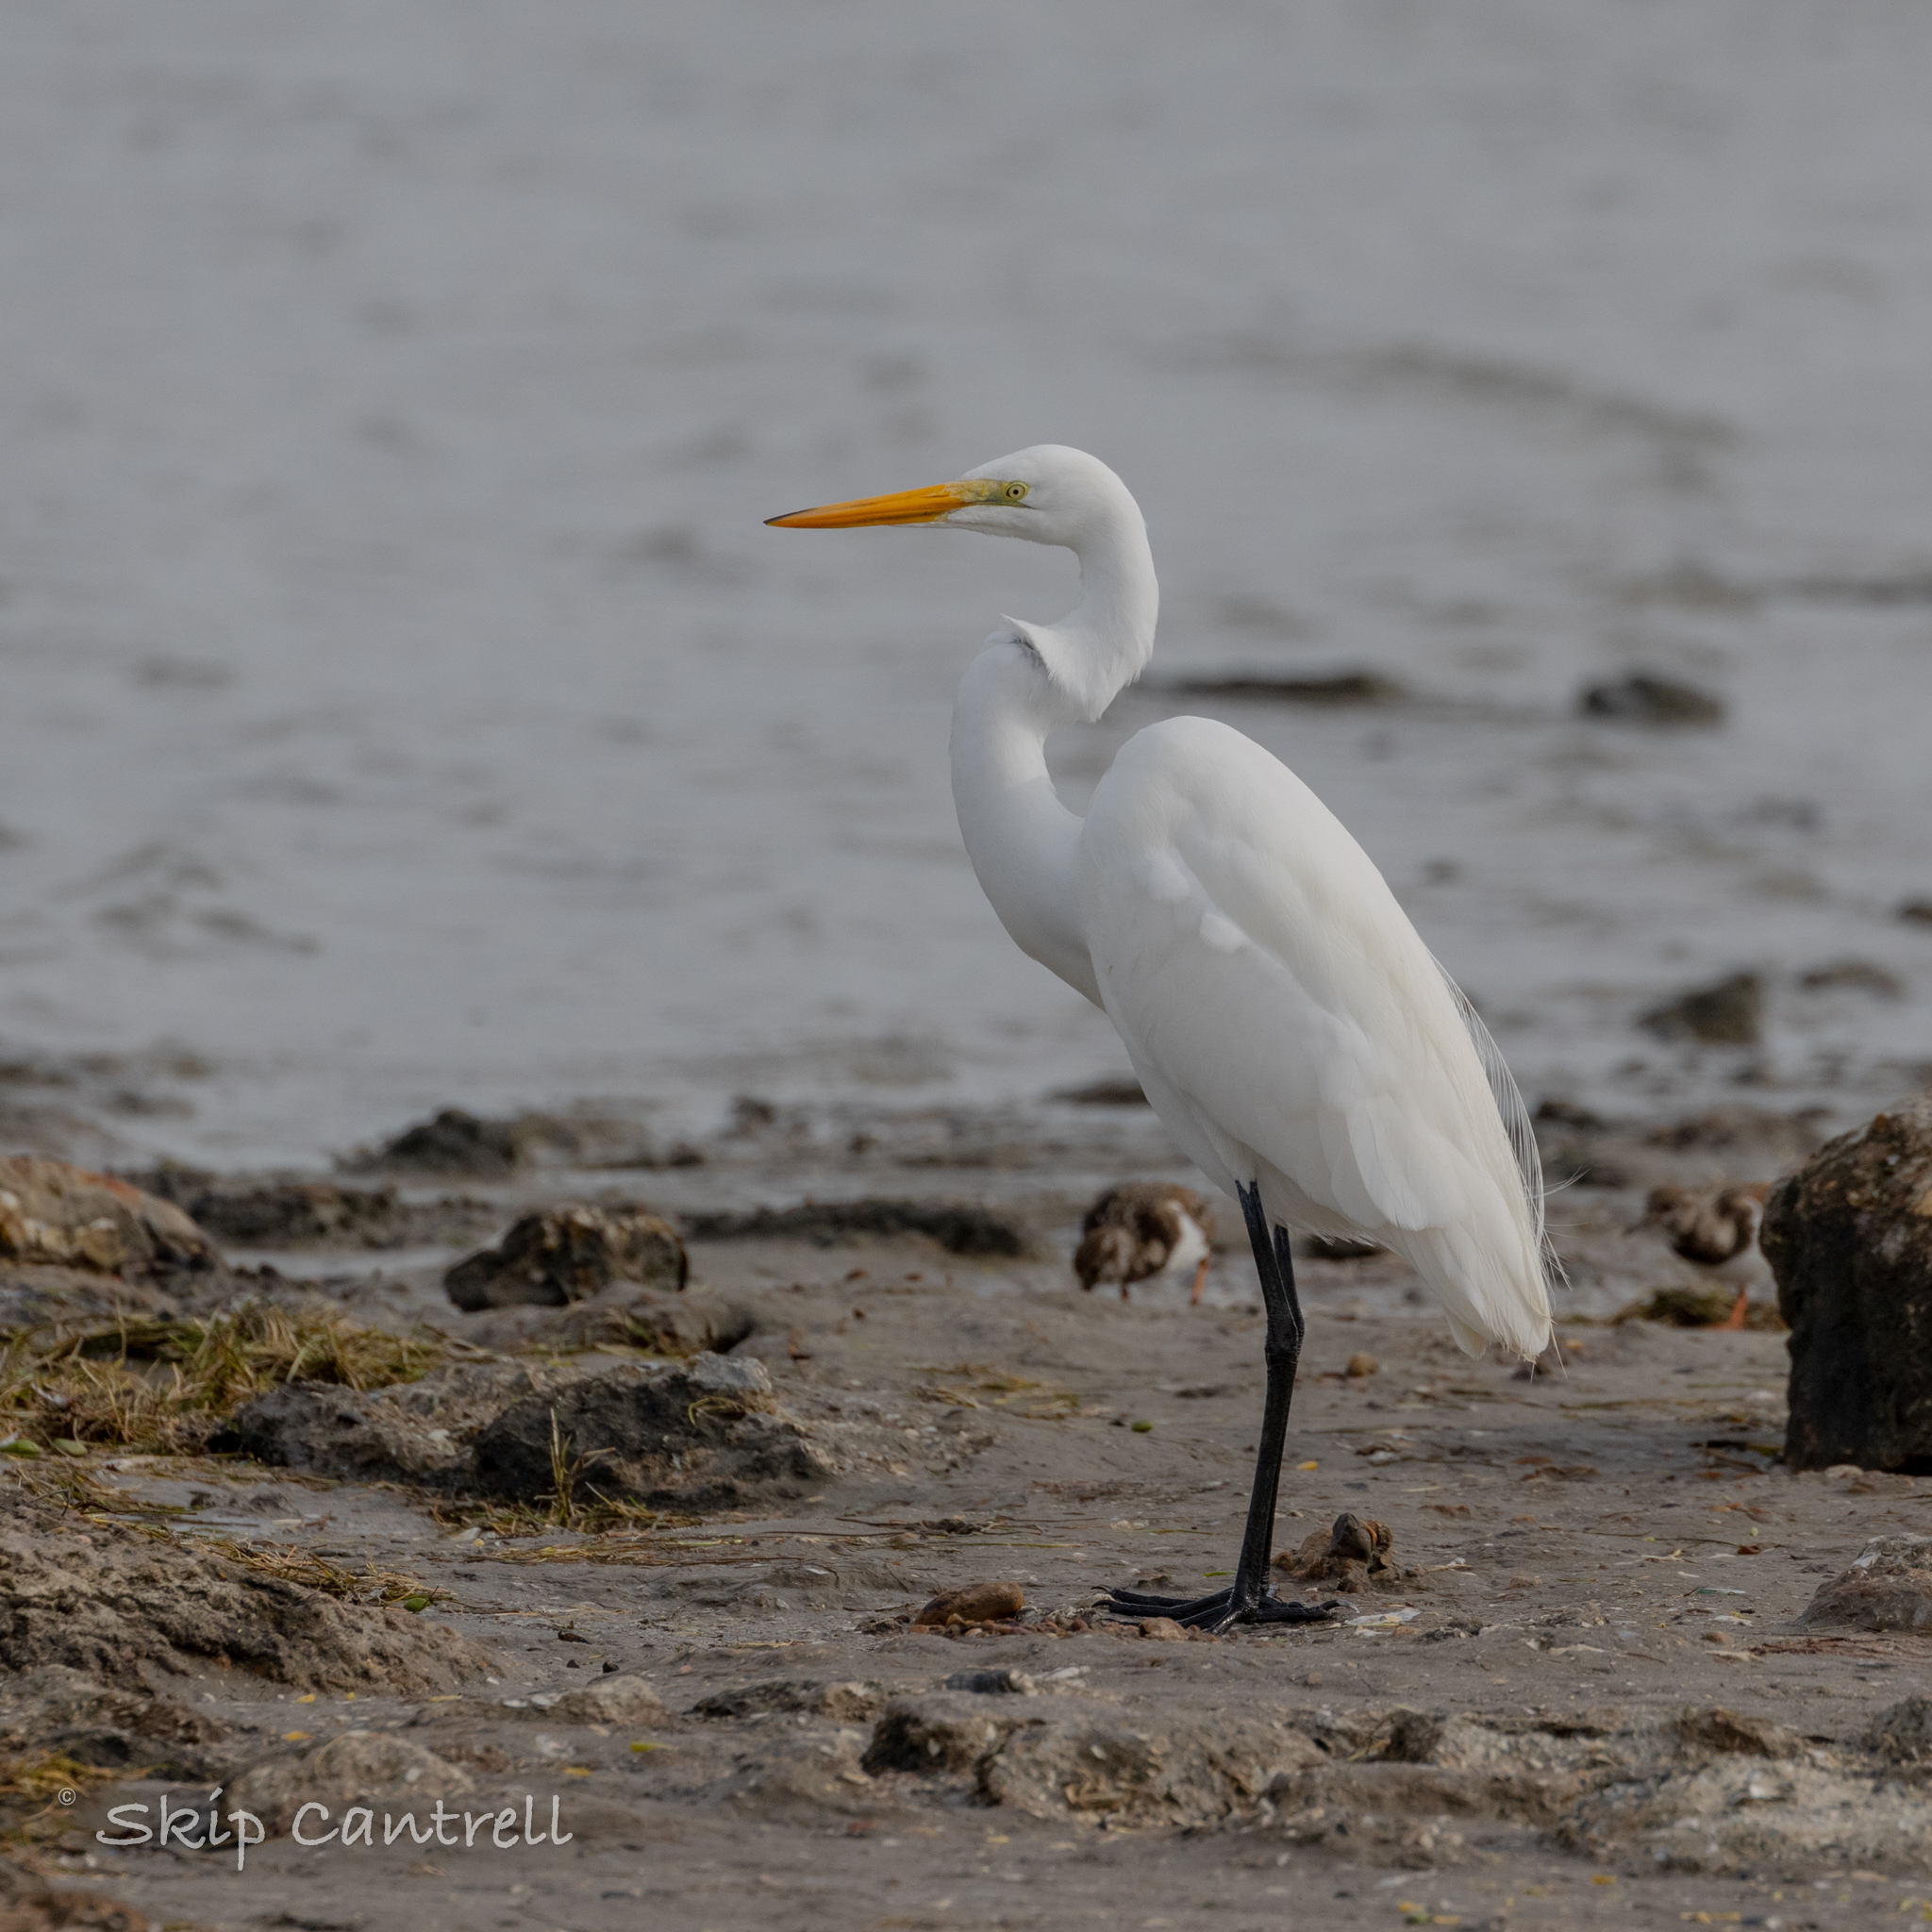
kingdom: Animalia
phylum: Chordata
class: Aves
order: Pelecaniformes
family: Ardeidae
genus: Ardea
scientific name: Ardea alba
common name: Great egret
